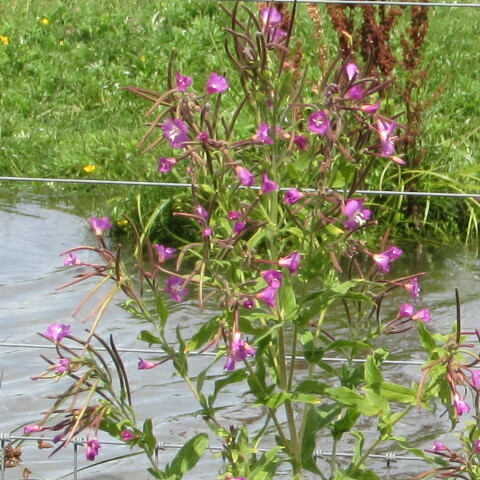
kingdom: Plantae
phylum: Tracheophyta
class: Magnoliopsida
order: Myrtales
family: Onagraceae
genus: Epilobium
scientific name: Epilobium hirsutum
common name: Great willowherb
